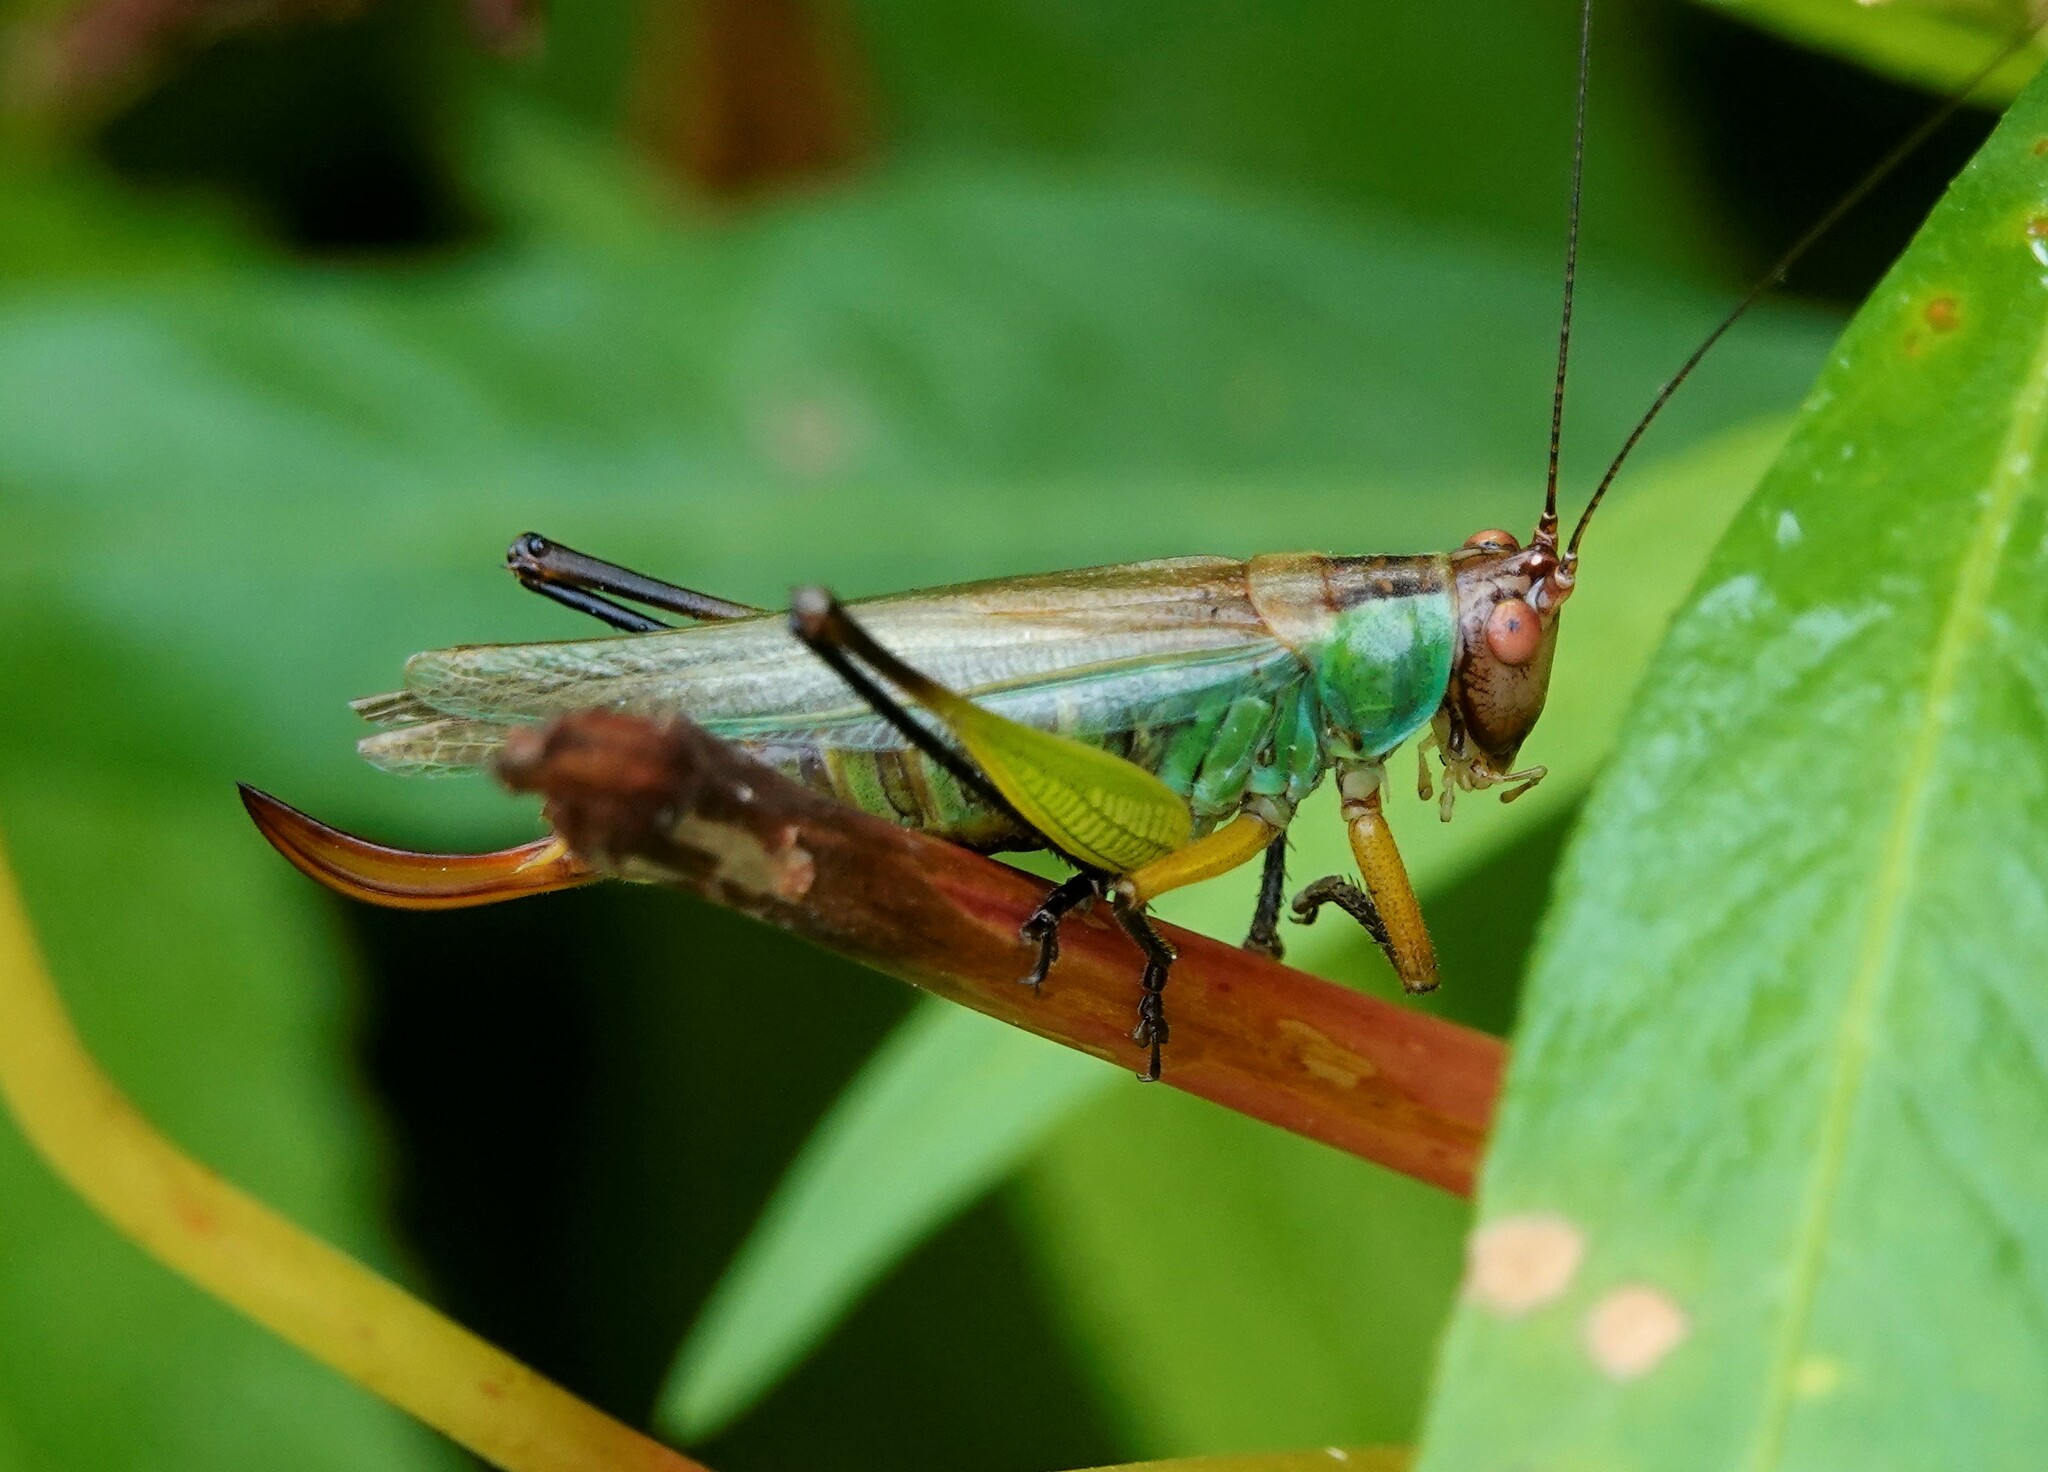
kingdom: Animalia
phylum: Arthropoda
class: Insecta
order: Orthoptera
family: Tettigoniidae
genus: Orchelimum
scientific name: Orchelimum nigripes
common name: Black-legged meadow katydid
